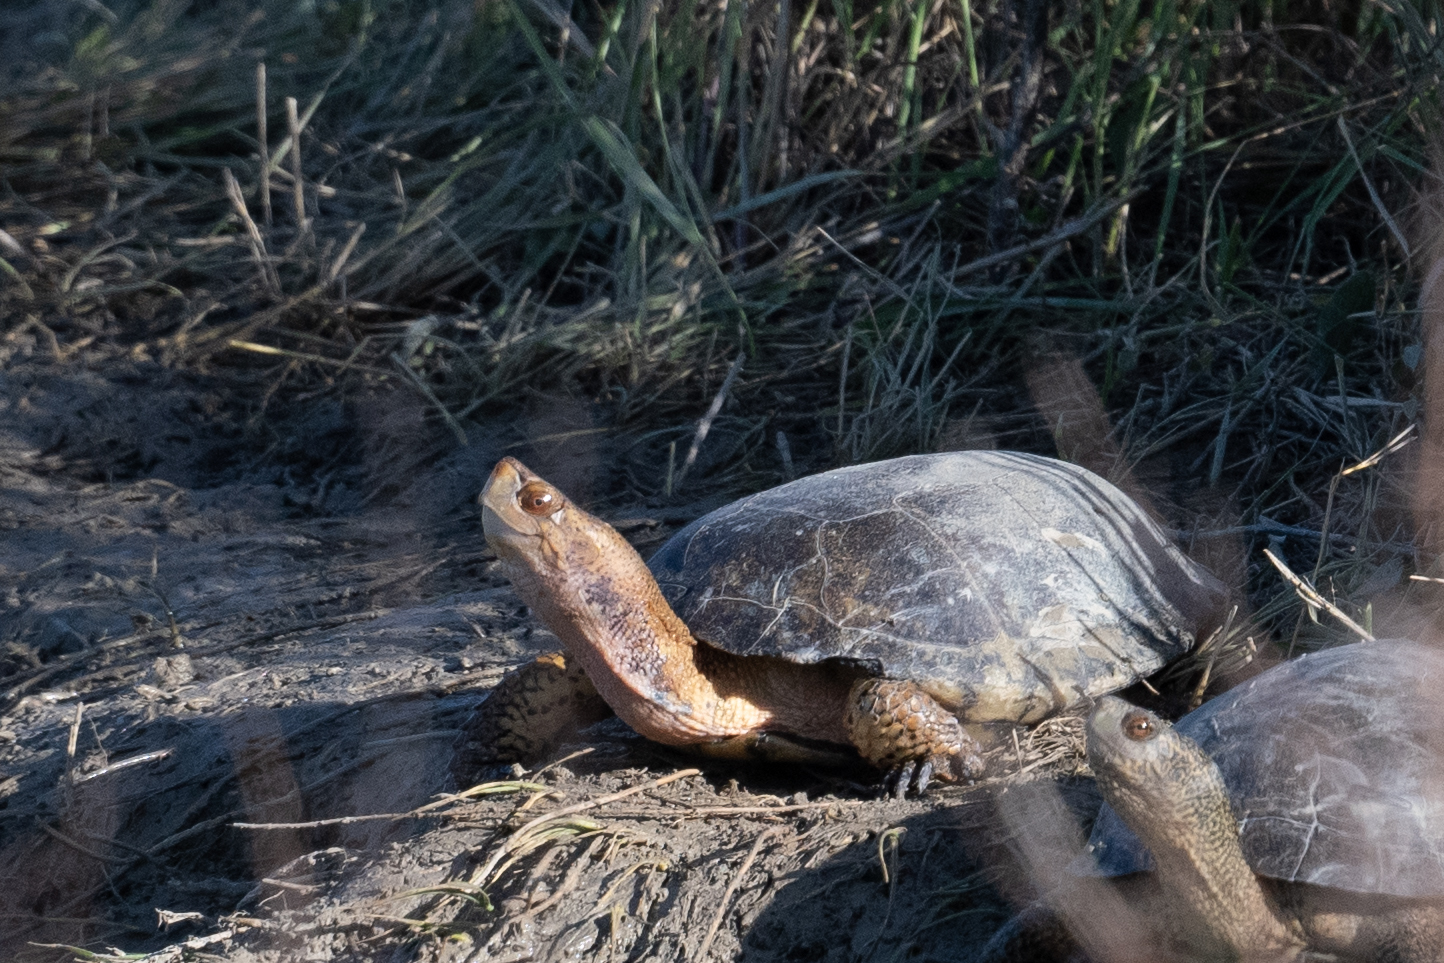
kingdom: Animalia
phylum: Chordata
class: Testudines
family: Emydidae
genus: Actinemys
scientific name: Actinemys marmorata
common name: Western pond turtle
